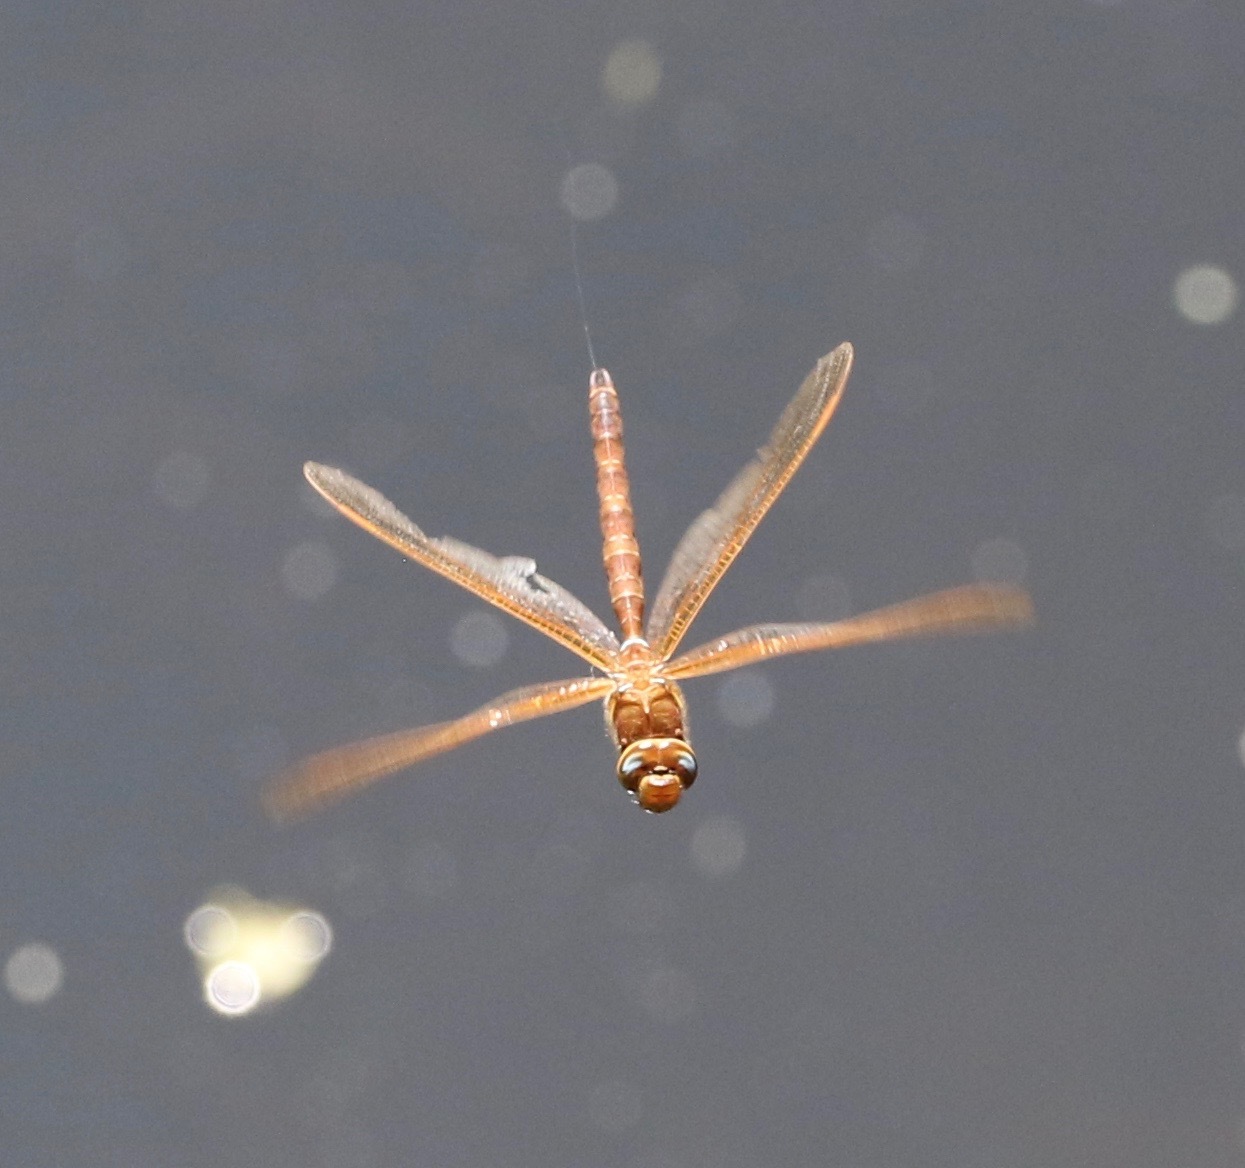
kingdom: Animalia
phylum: Arthropoda
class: Insecta
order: Odonata
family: Aeshnidae
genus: Aeshna
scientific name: Aeshna grandis
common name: Brown hawker
